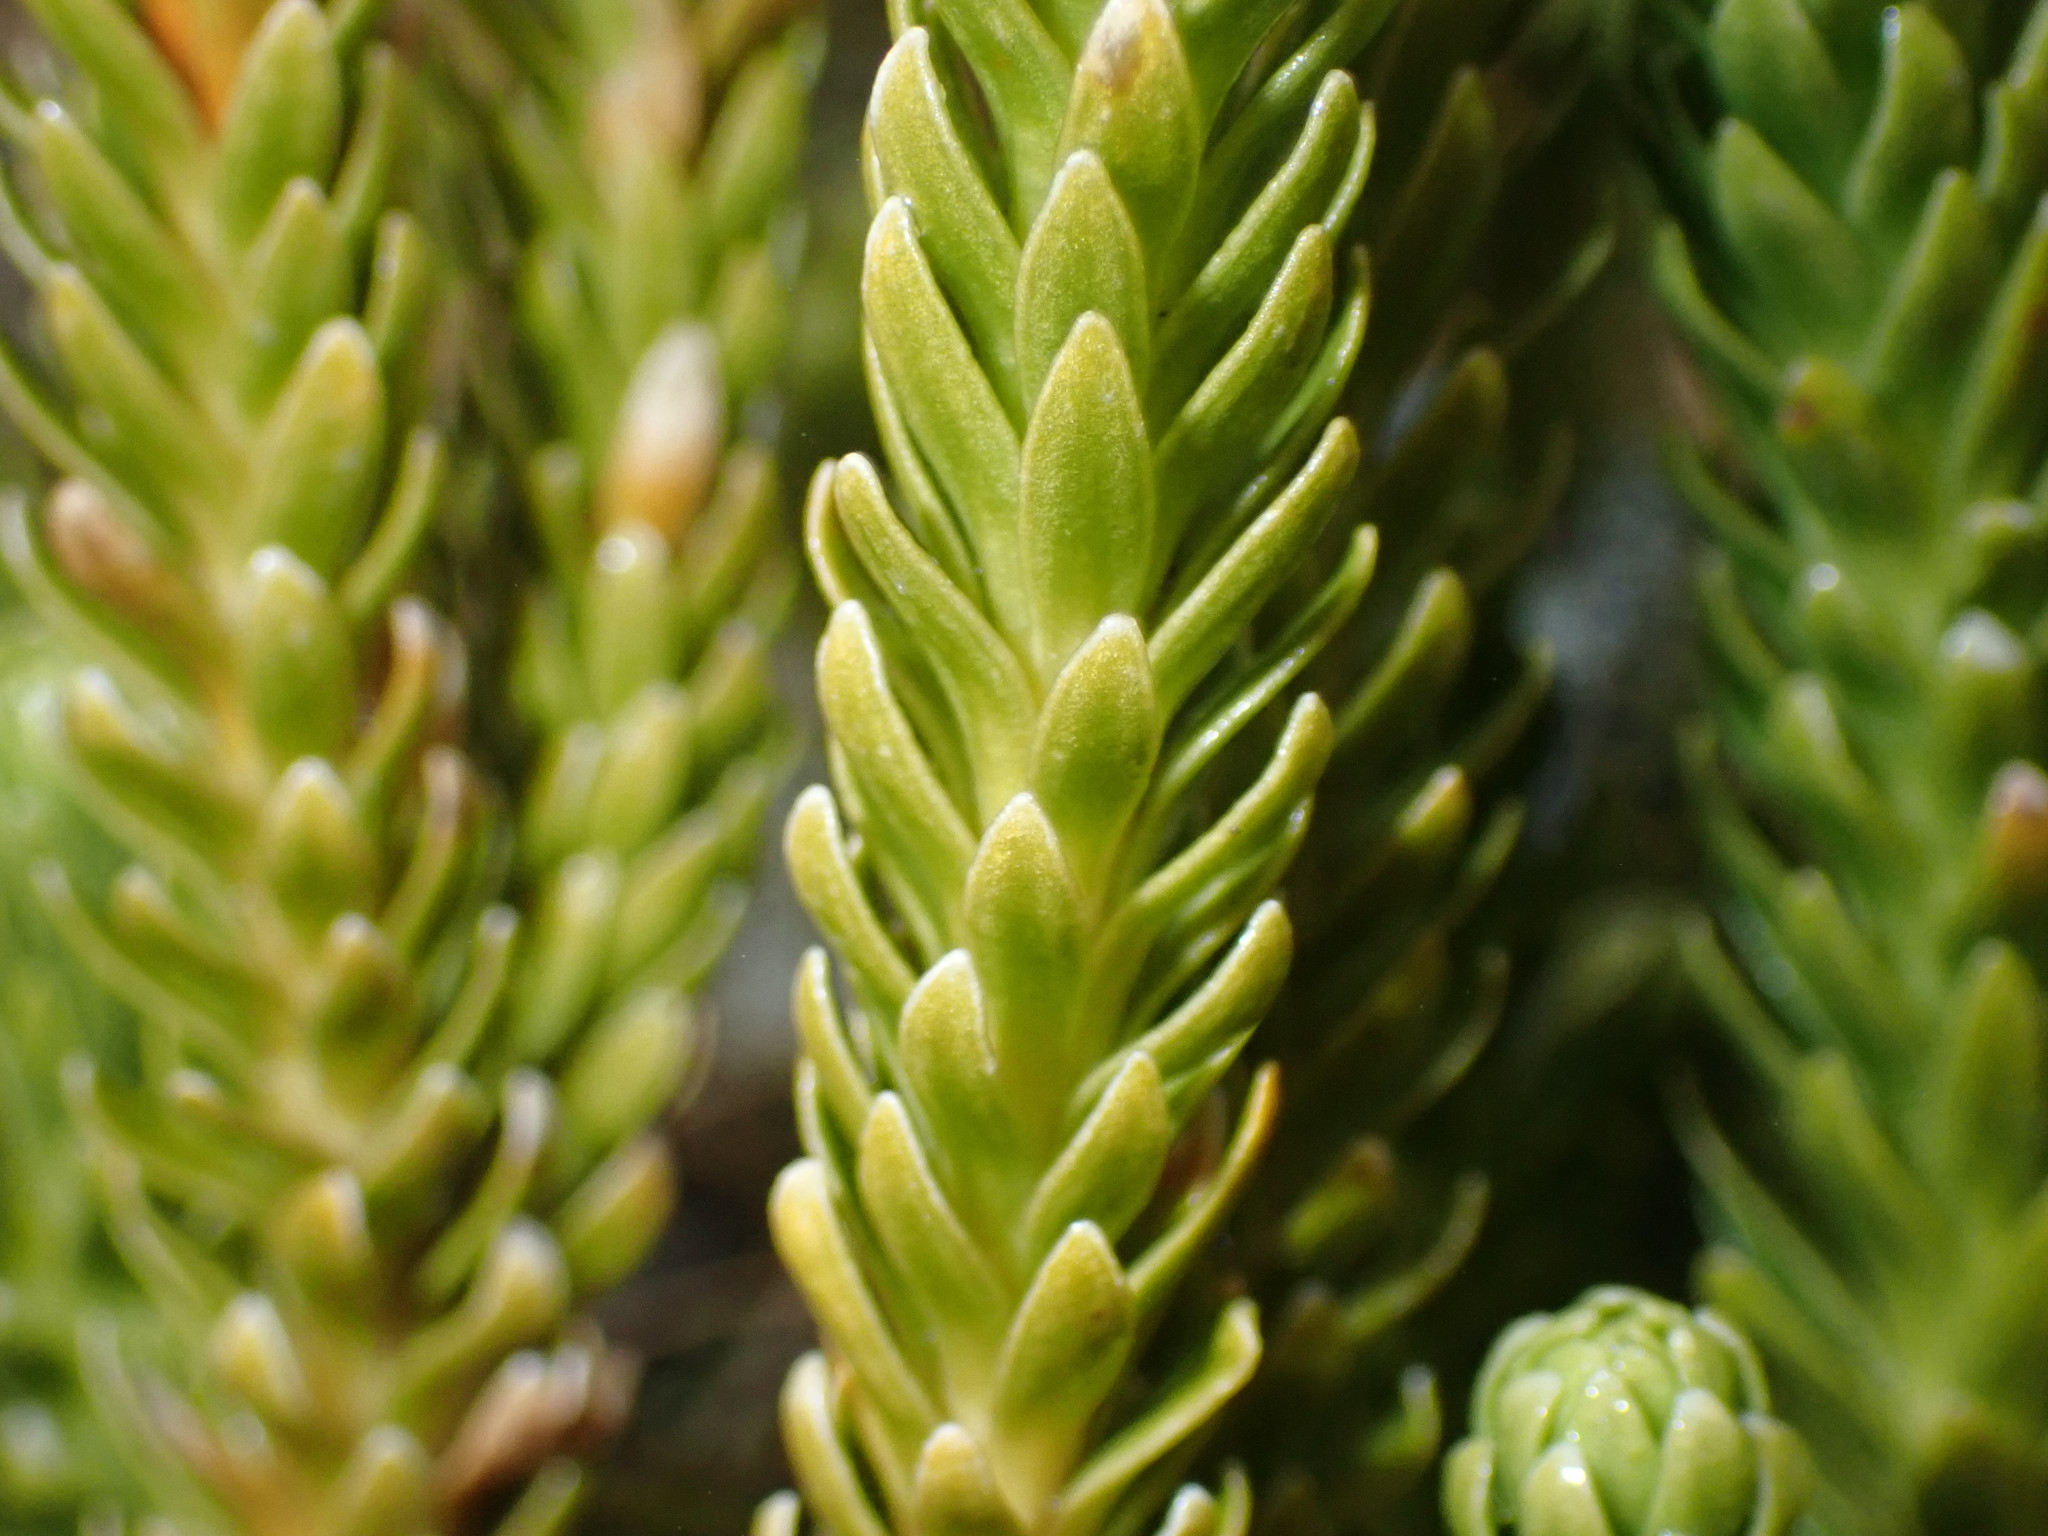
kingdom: Plantae
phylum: Tracheophyta
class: Lycopodiopsida
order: Lycopodiales
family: Lycopodiaceae
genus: Phlegmariurus
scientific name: Phlegmariurus varius
